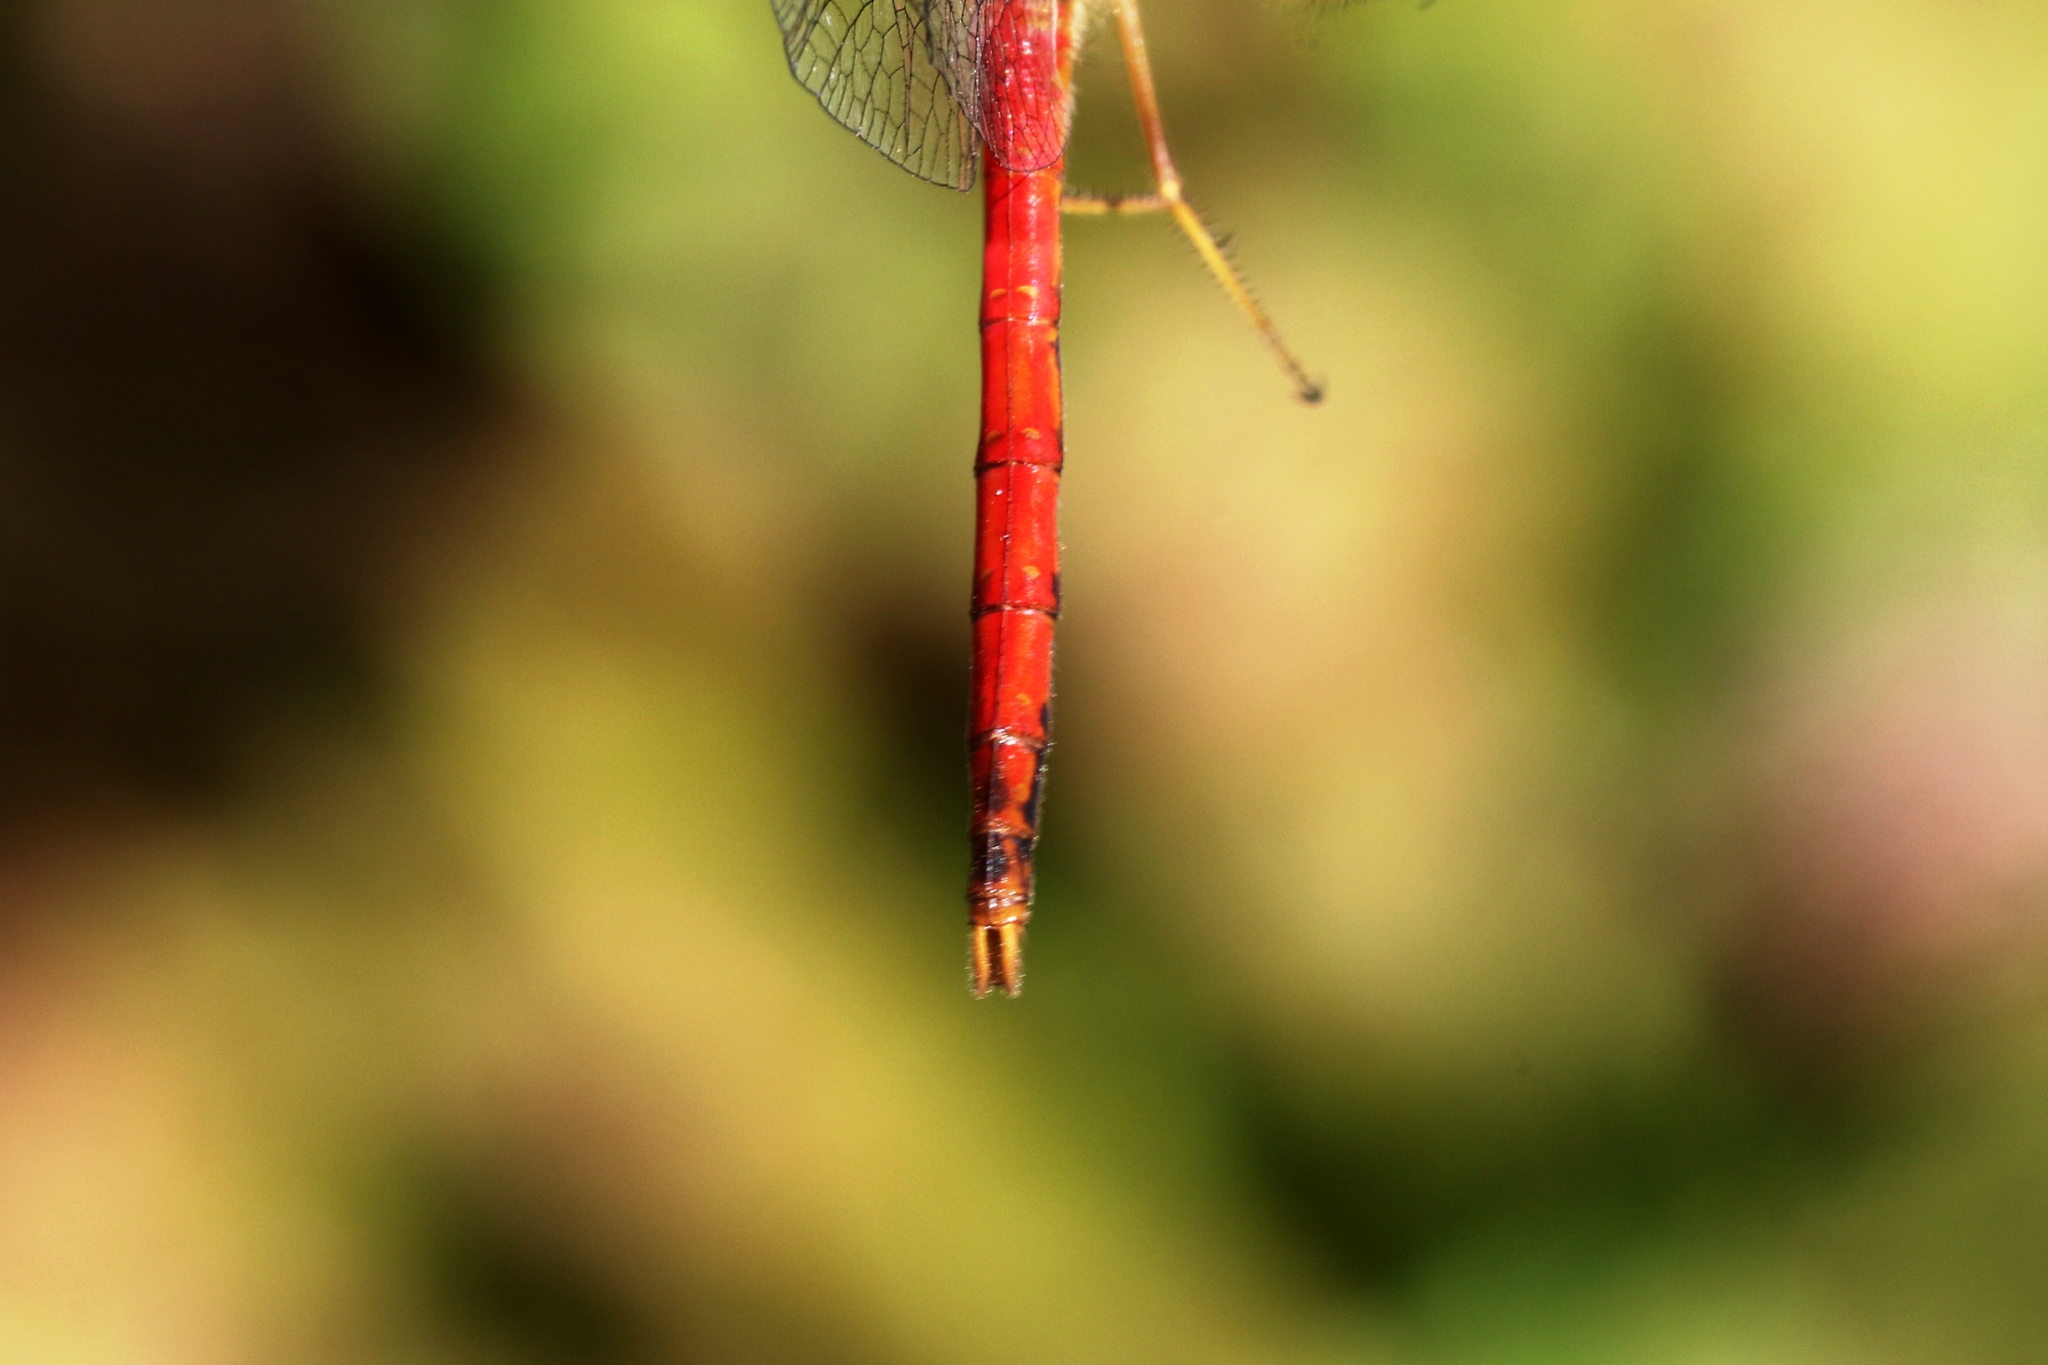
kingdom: Animalia
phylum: Arthropoda
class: Insecta
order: Odonata
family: Libellulidae
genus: Sympetrum
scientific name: Sympetrum vicinum
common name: Autumn meadowhawk
